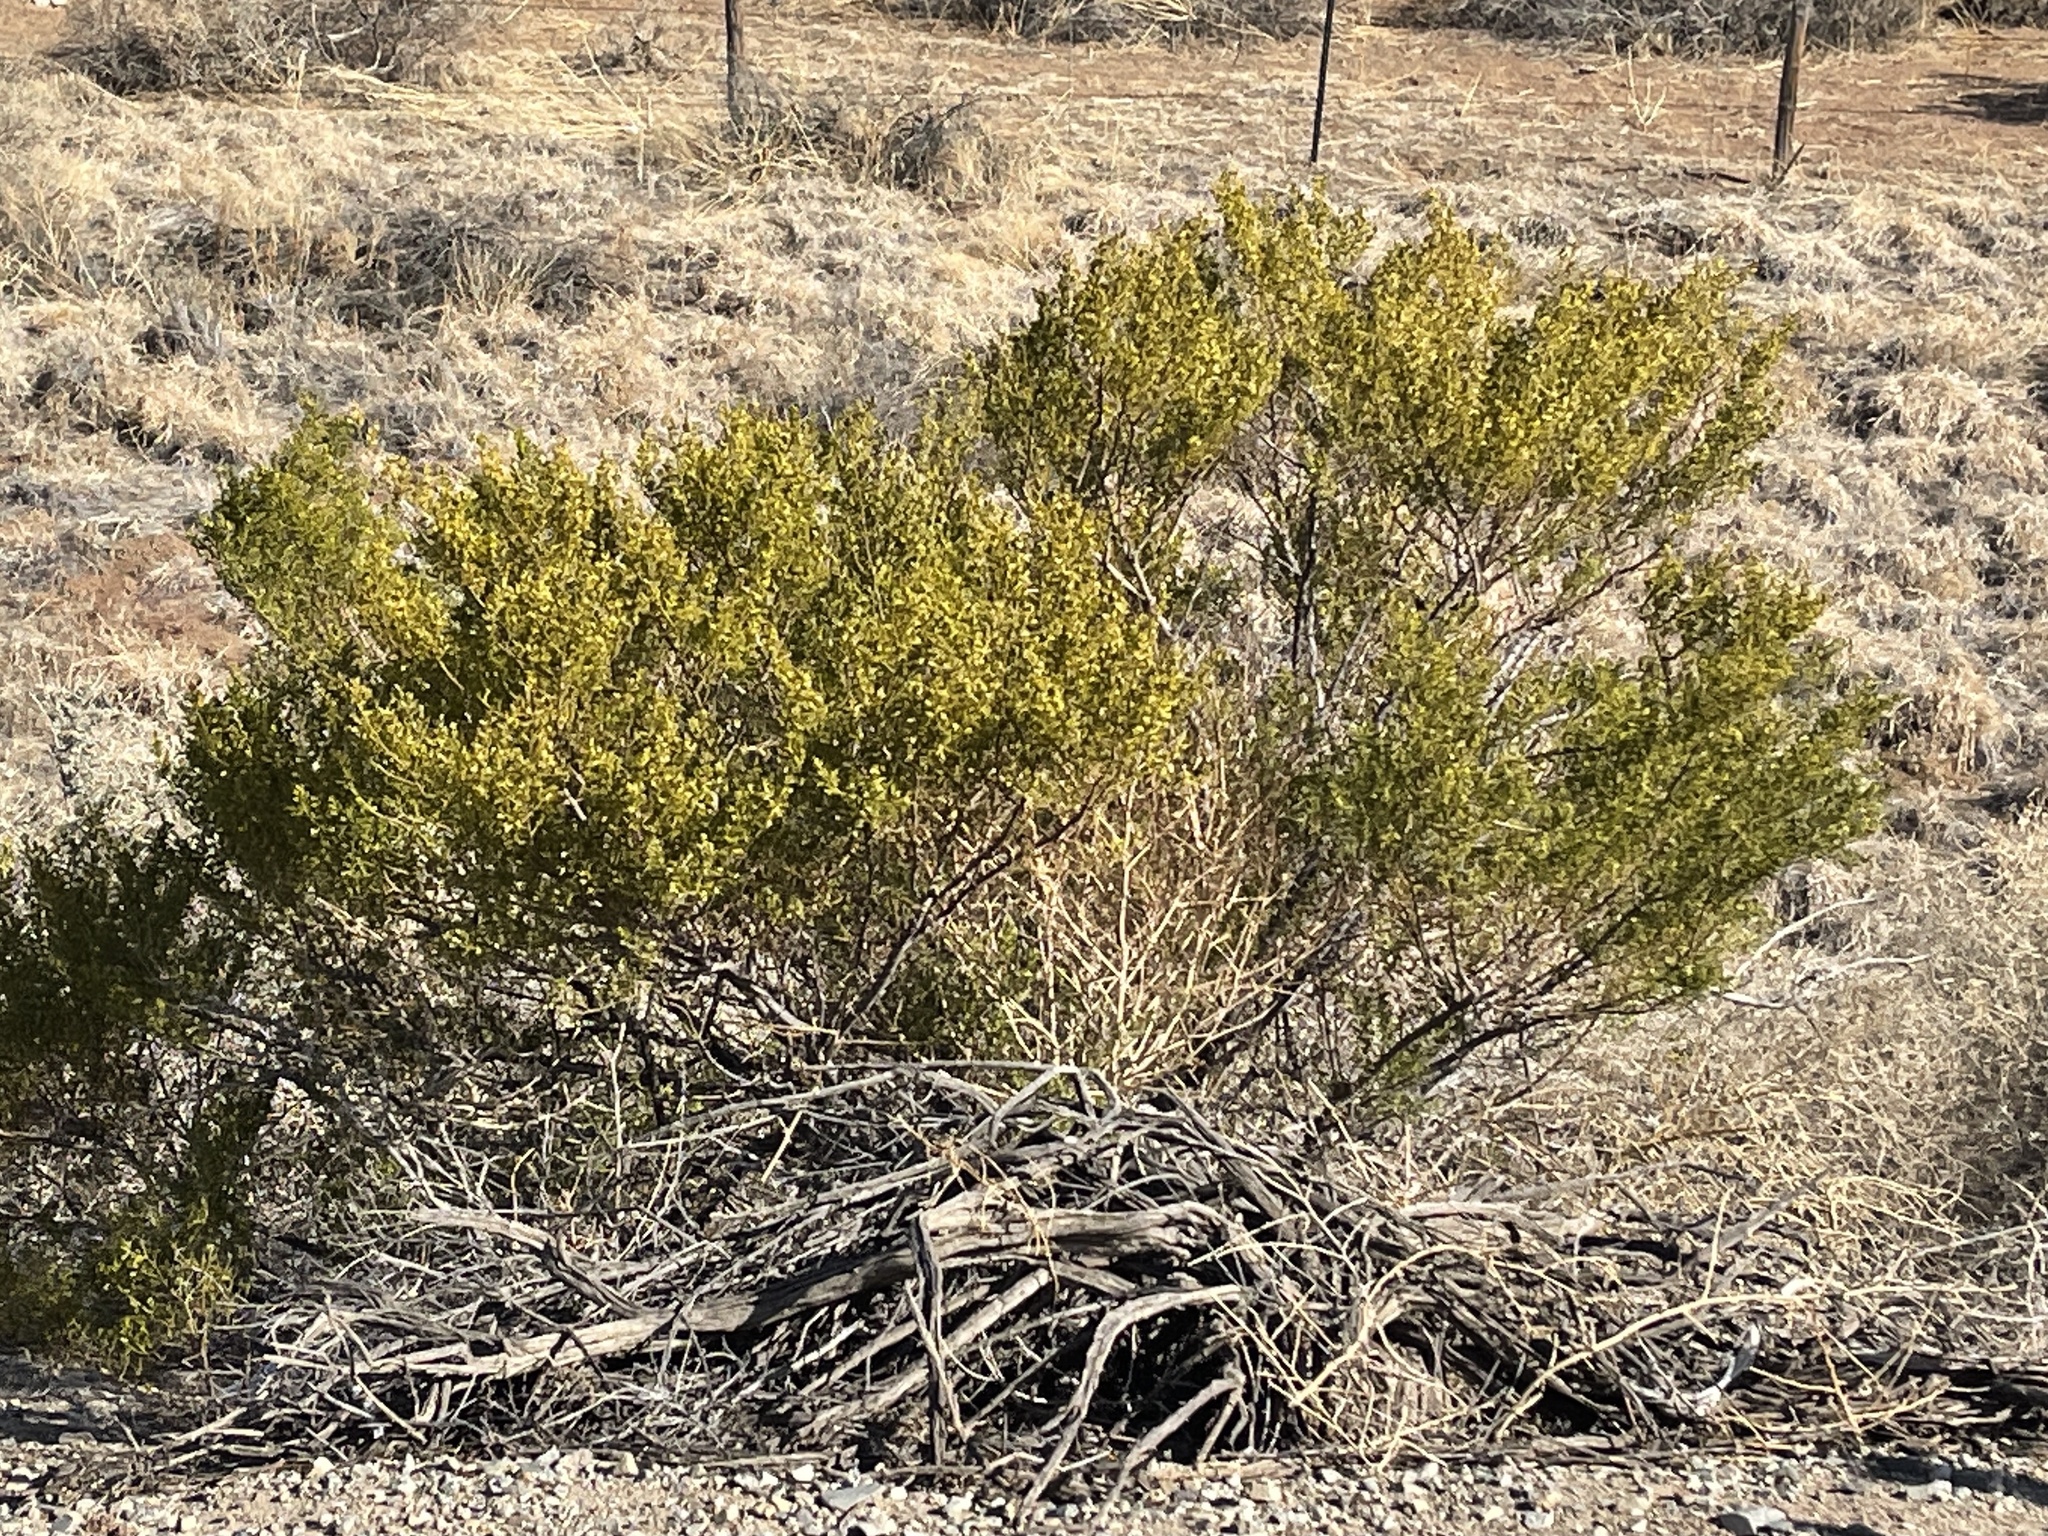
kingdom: Plantae
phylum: Tracheophyta
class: Magnoliopsida
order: Zygophyllales
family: Zygophyllaceae
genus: Larrea
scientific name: Larrea tridentata
